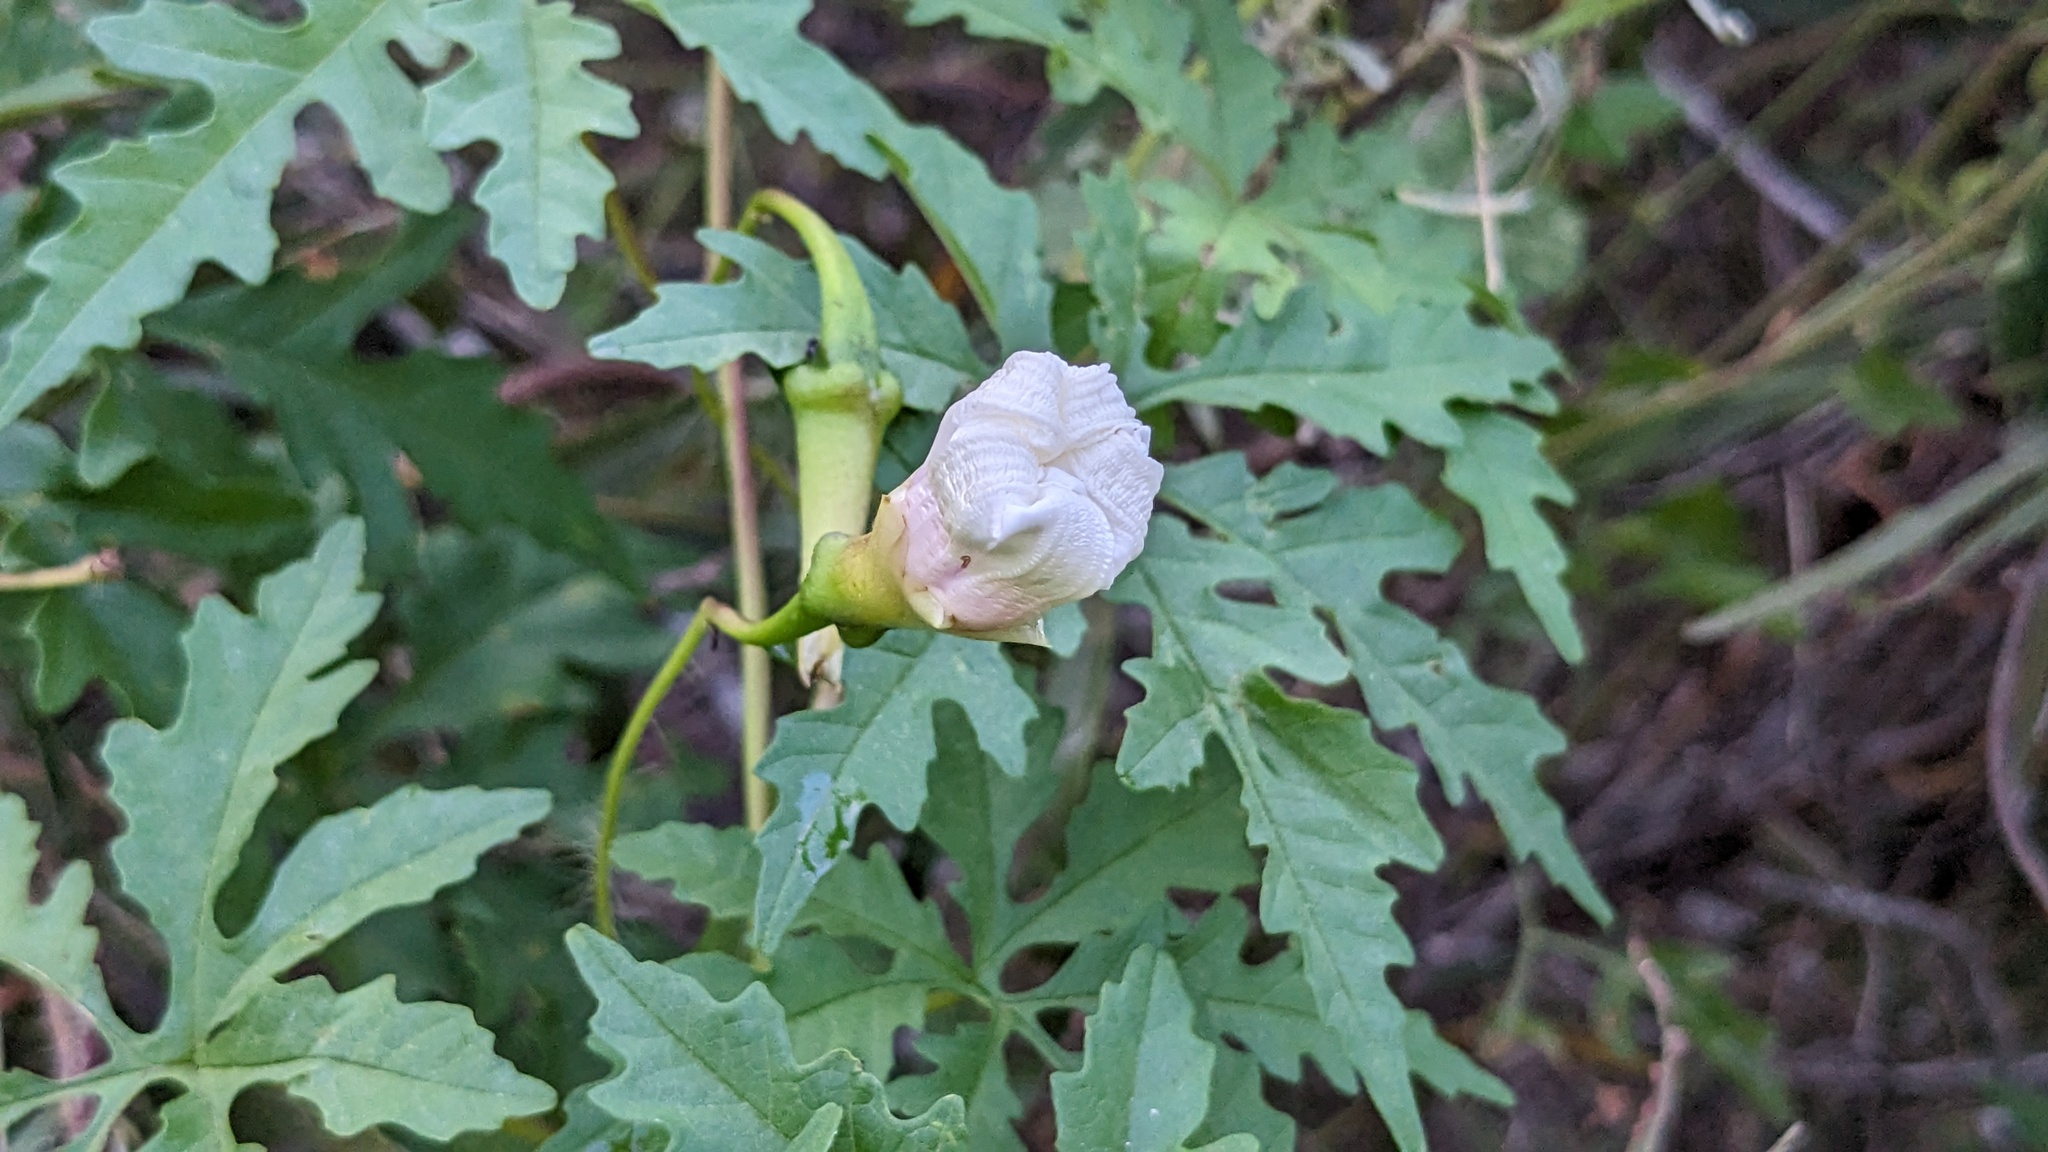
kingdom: Plantae
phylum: Tracheophyta
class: Magnoliopsida
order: Solanales
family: Convolvulaceae
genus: Distimake
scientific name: Distimake dissectus
